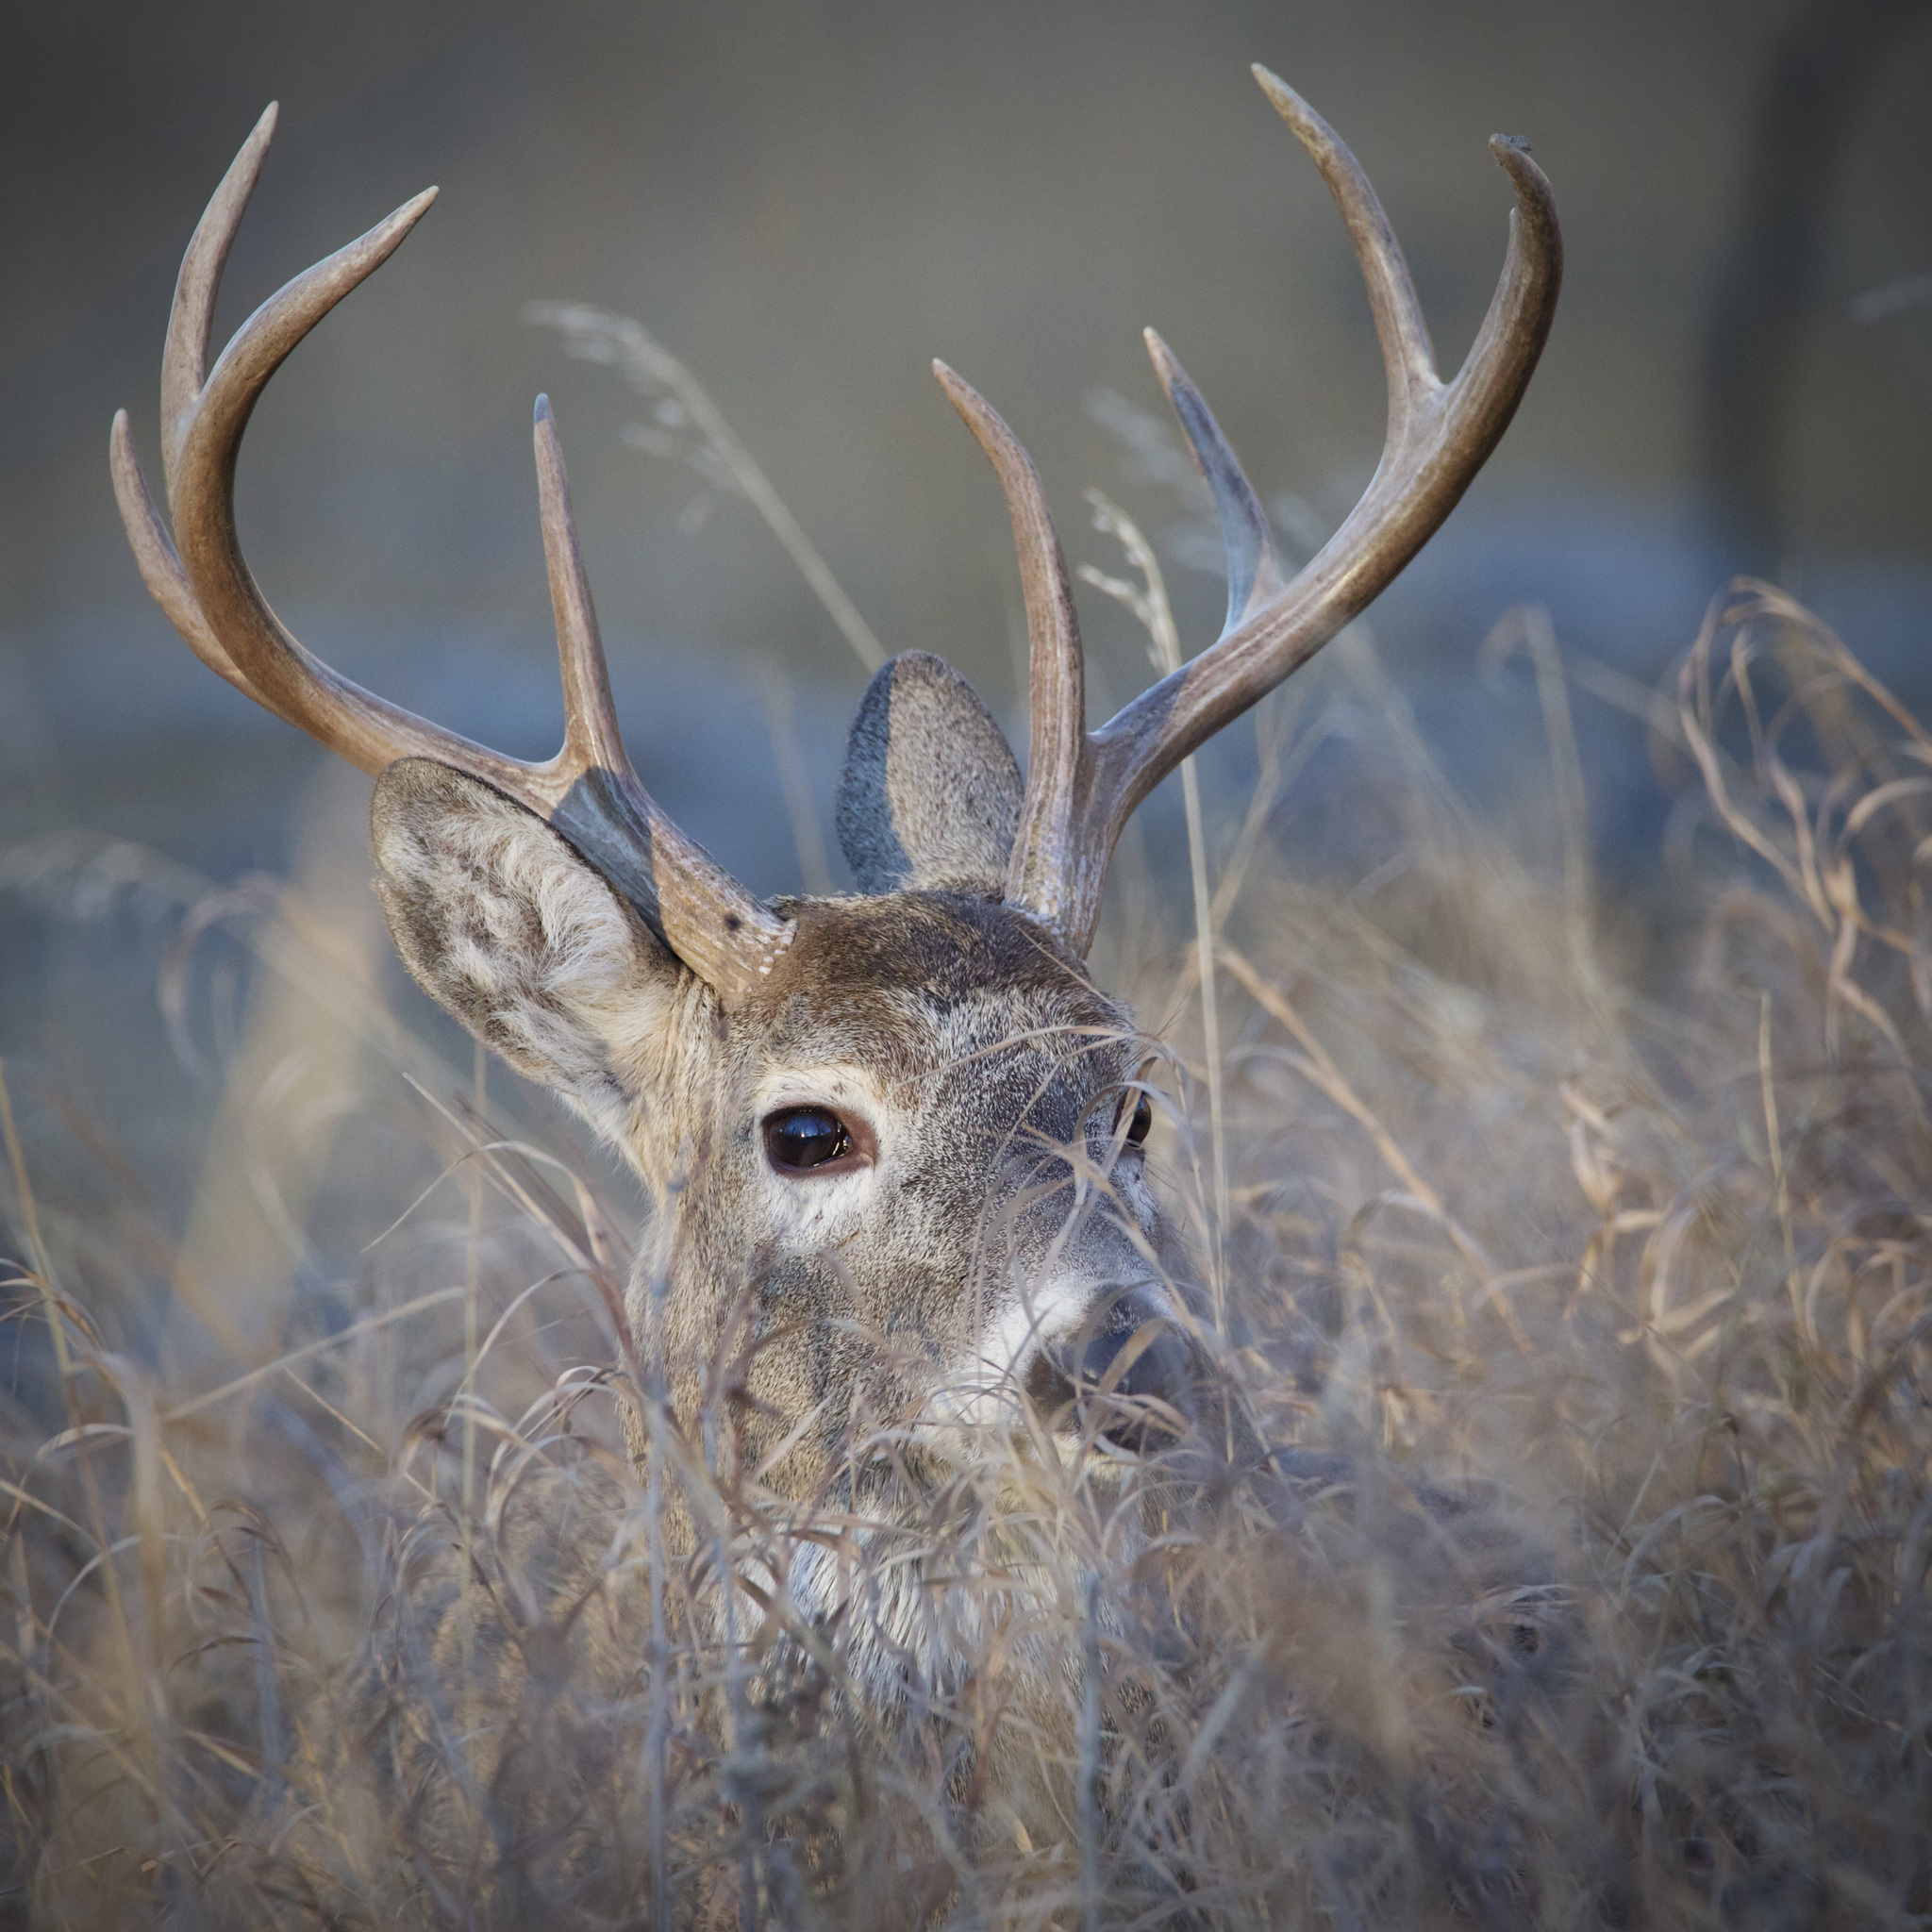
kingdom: Animalia
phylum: Chordata
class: Mammalia
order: Artiodactyla
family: Cervidae
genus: Odocoileus
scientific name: Odocoileus virginianus
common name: White-tailed deer
